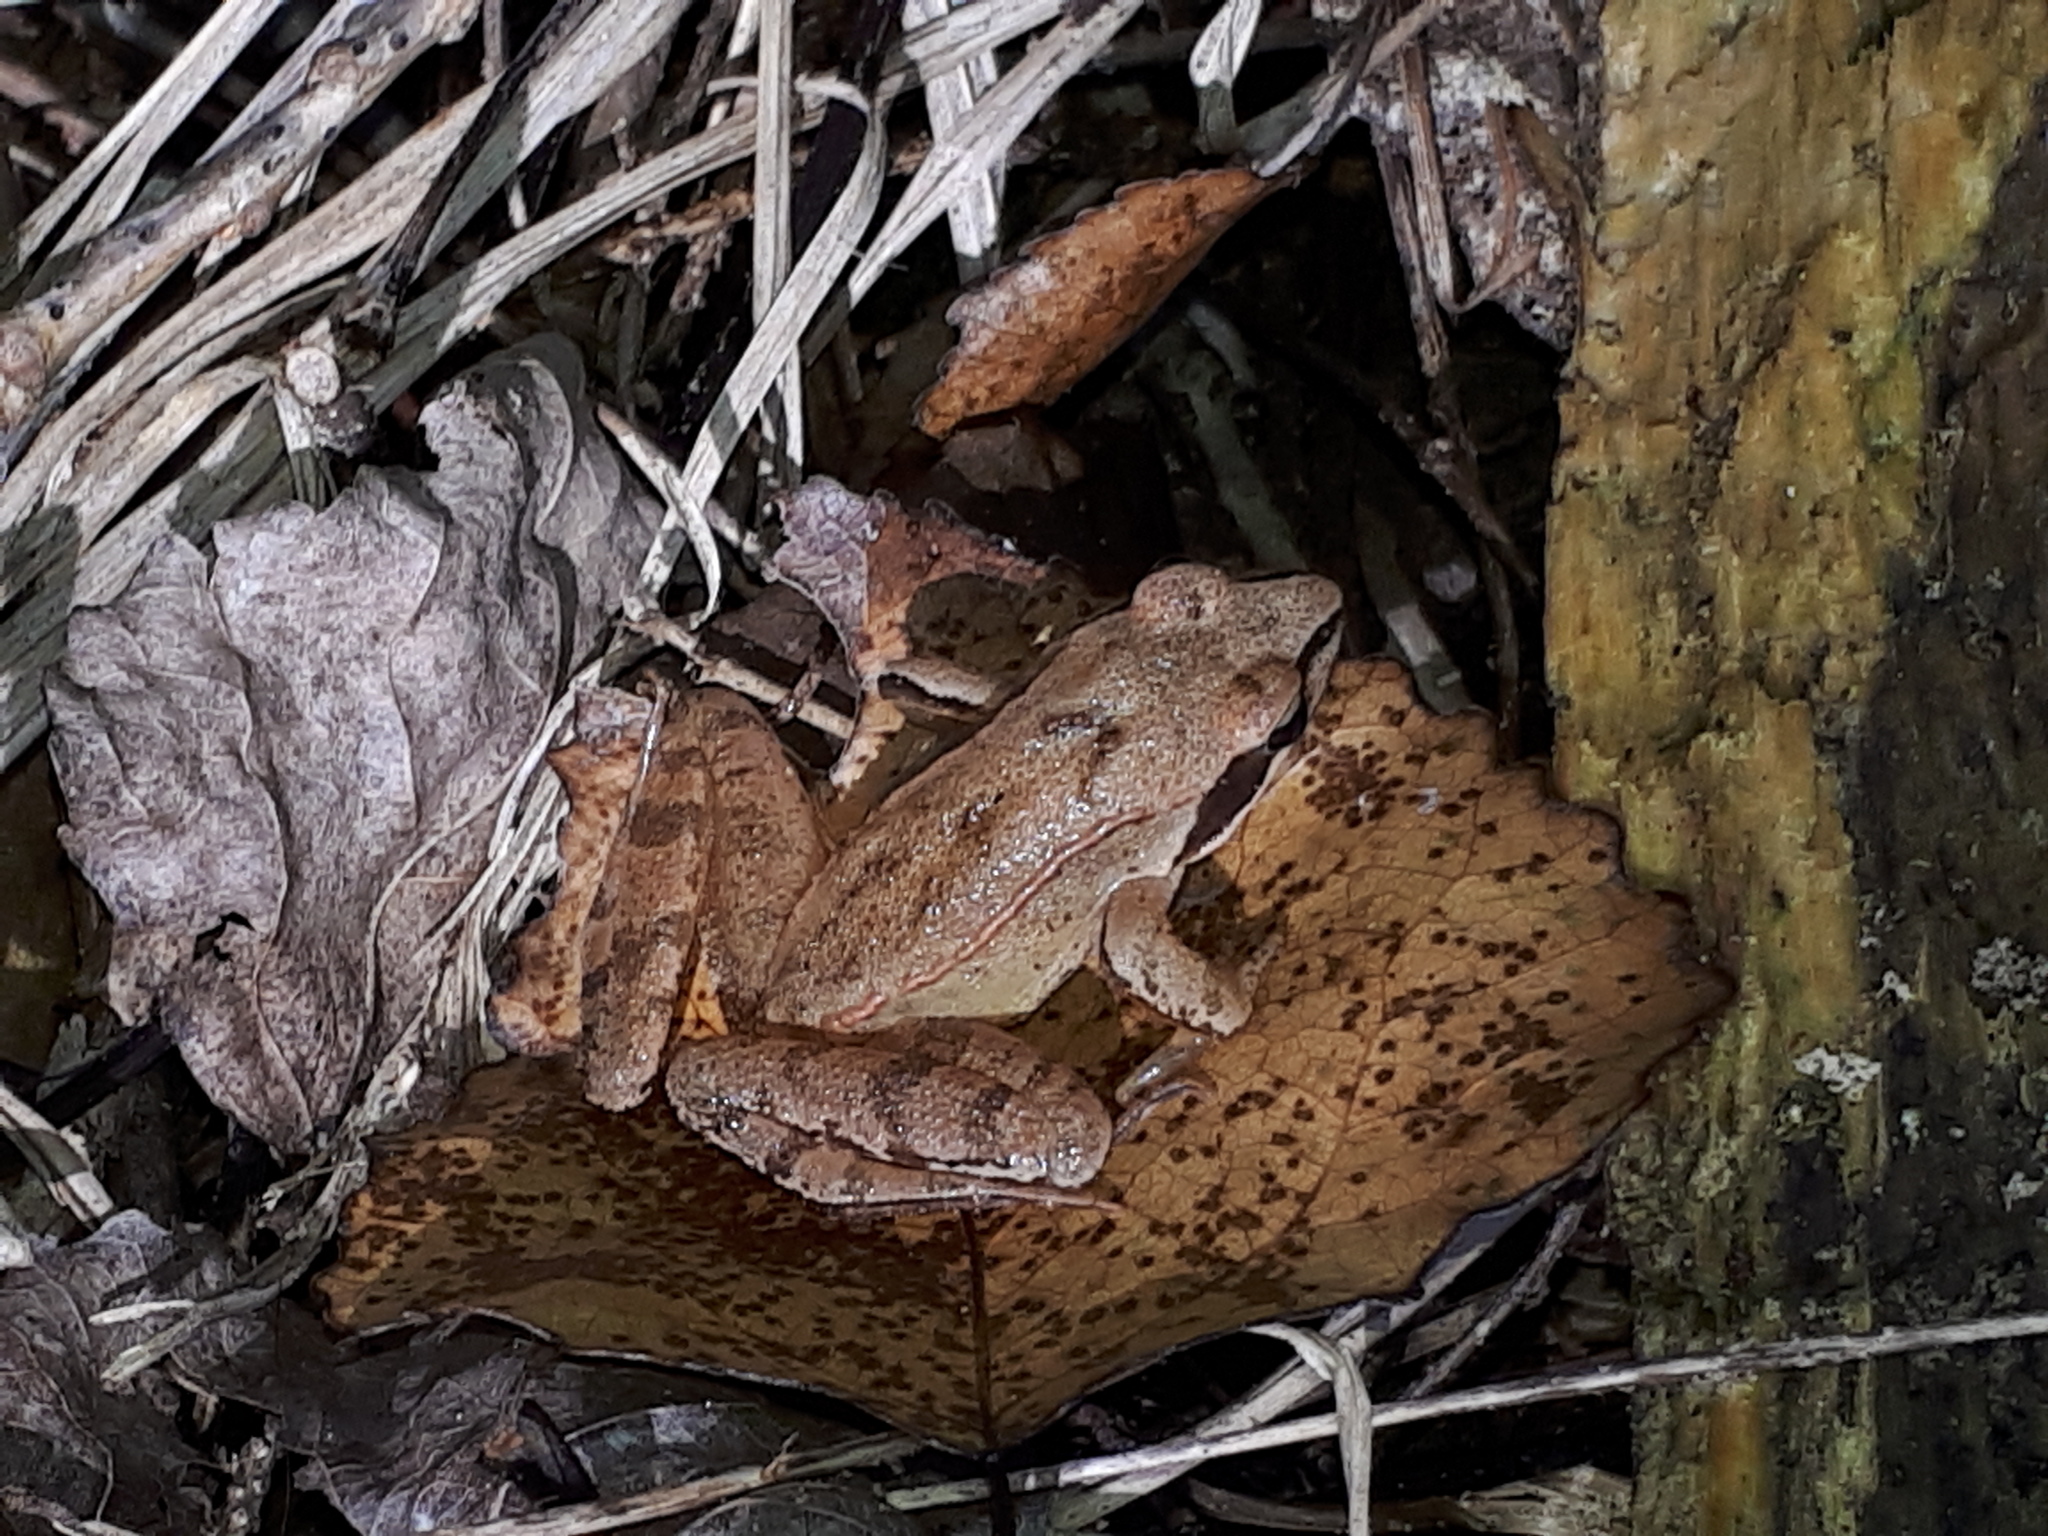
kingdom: Animalia
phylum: Chordata
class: Amphibia
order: Anura
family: Ranidae
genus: Rana
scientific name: Rana dalmatina
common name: Agile frog
